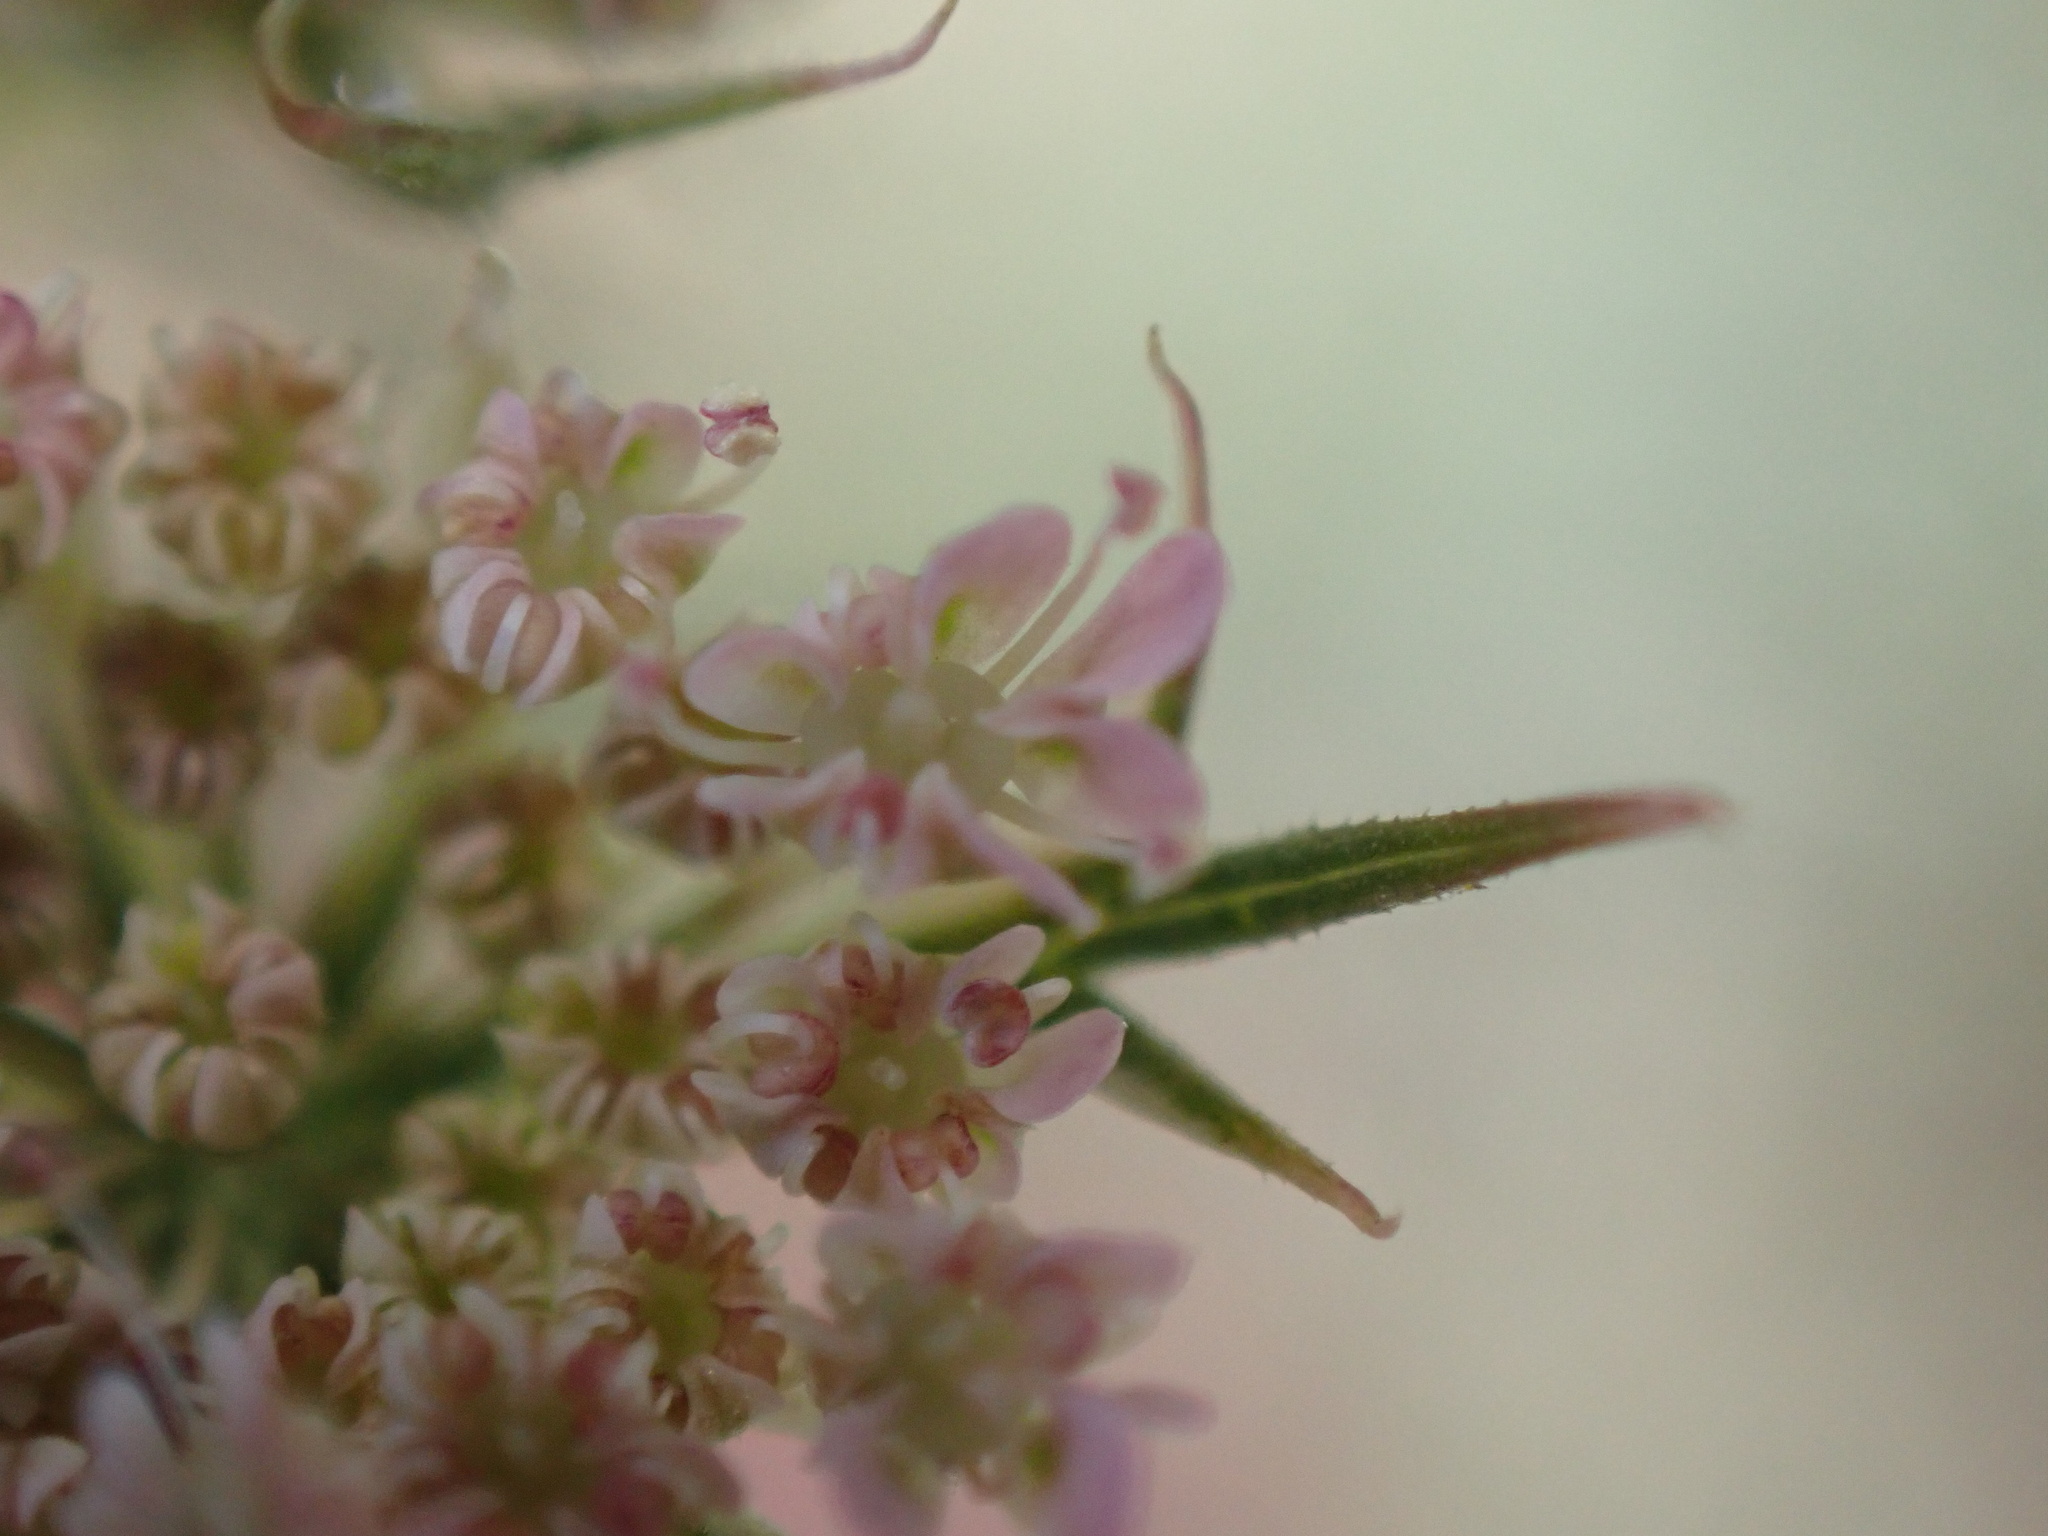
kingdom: Plantae
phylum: Tracheophyta
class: Magnoliopsida
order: Apiales
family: Apiaceae
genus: Daucus
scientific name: Daucus carota
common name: Wild carrot
